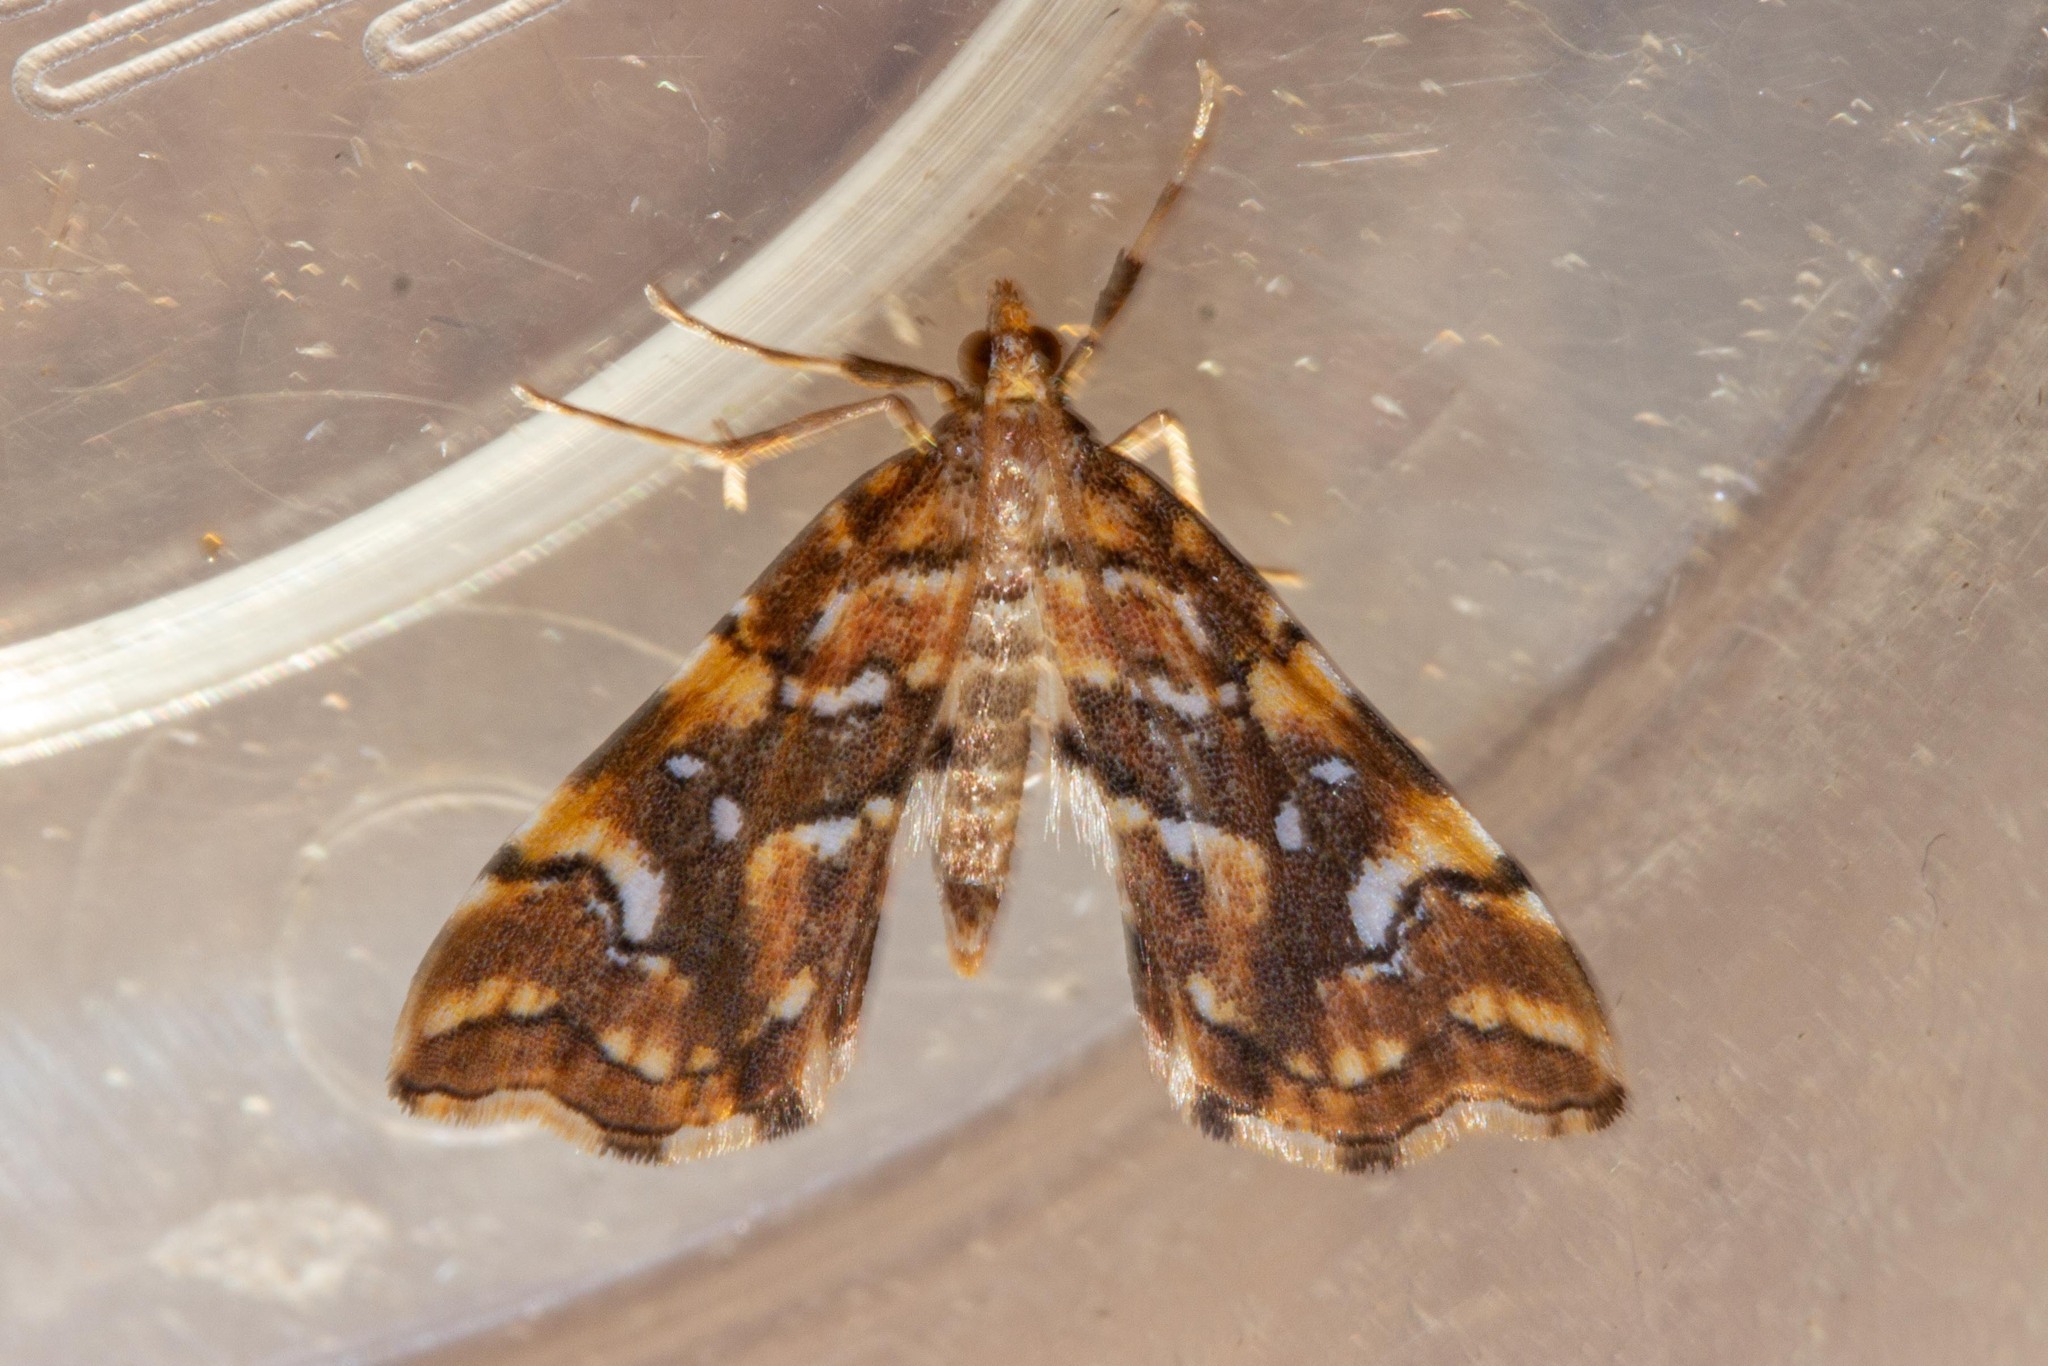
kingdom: Animalia
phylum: Arthropoda
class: Insecta
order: Lepidoptera
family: Pyralidae
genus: Musotima
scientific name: Musotima nitidalis
